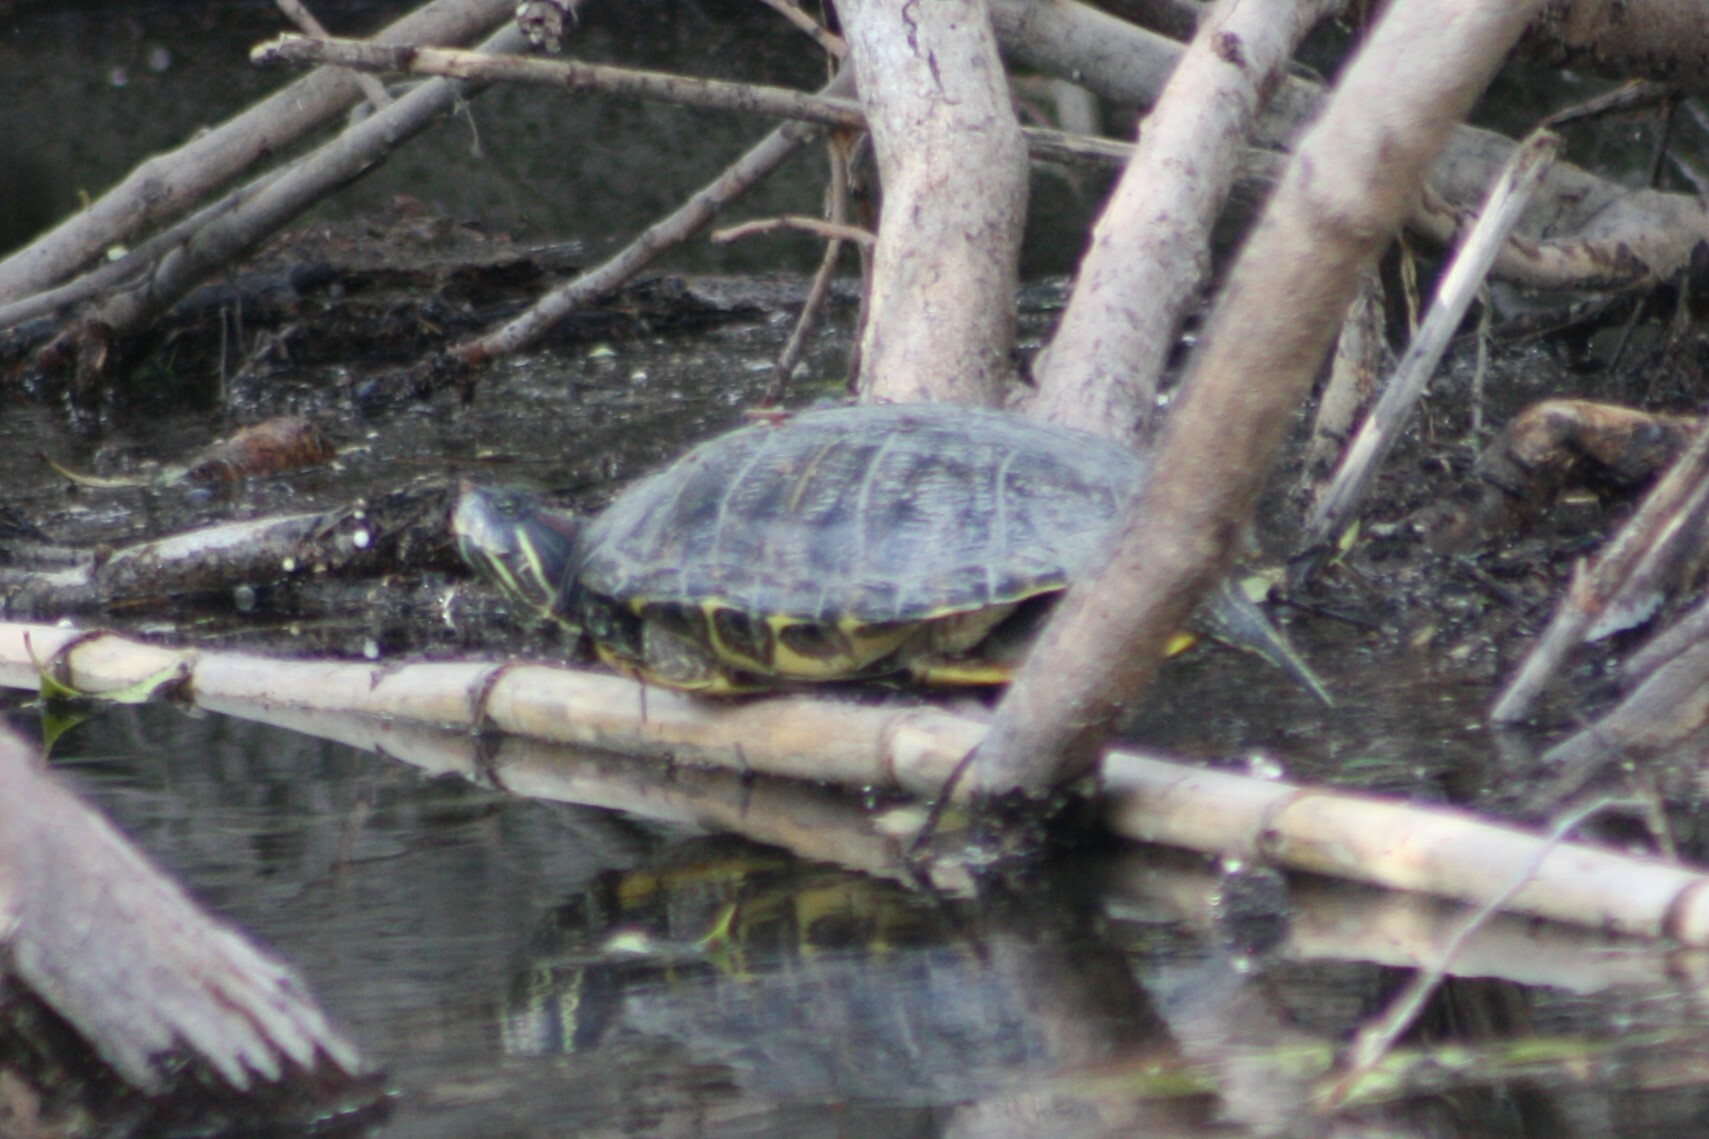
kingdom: Animalia
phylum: Chordata
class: Testudines
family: Emydidae
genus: Trachemys
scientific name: Trachemys scripta
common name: Slider
